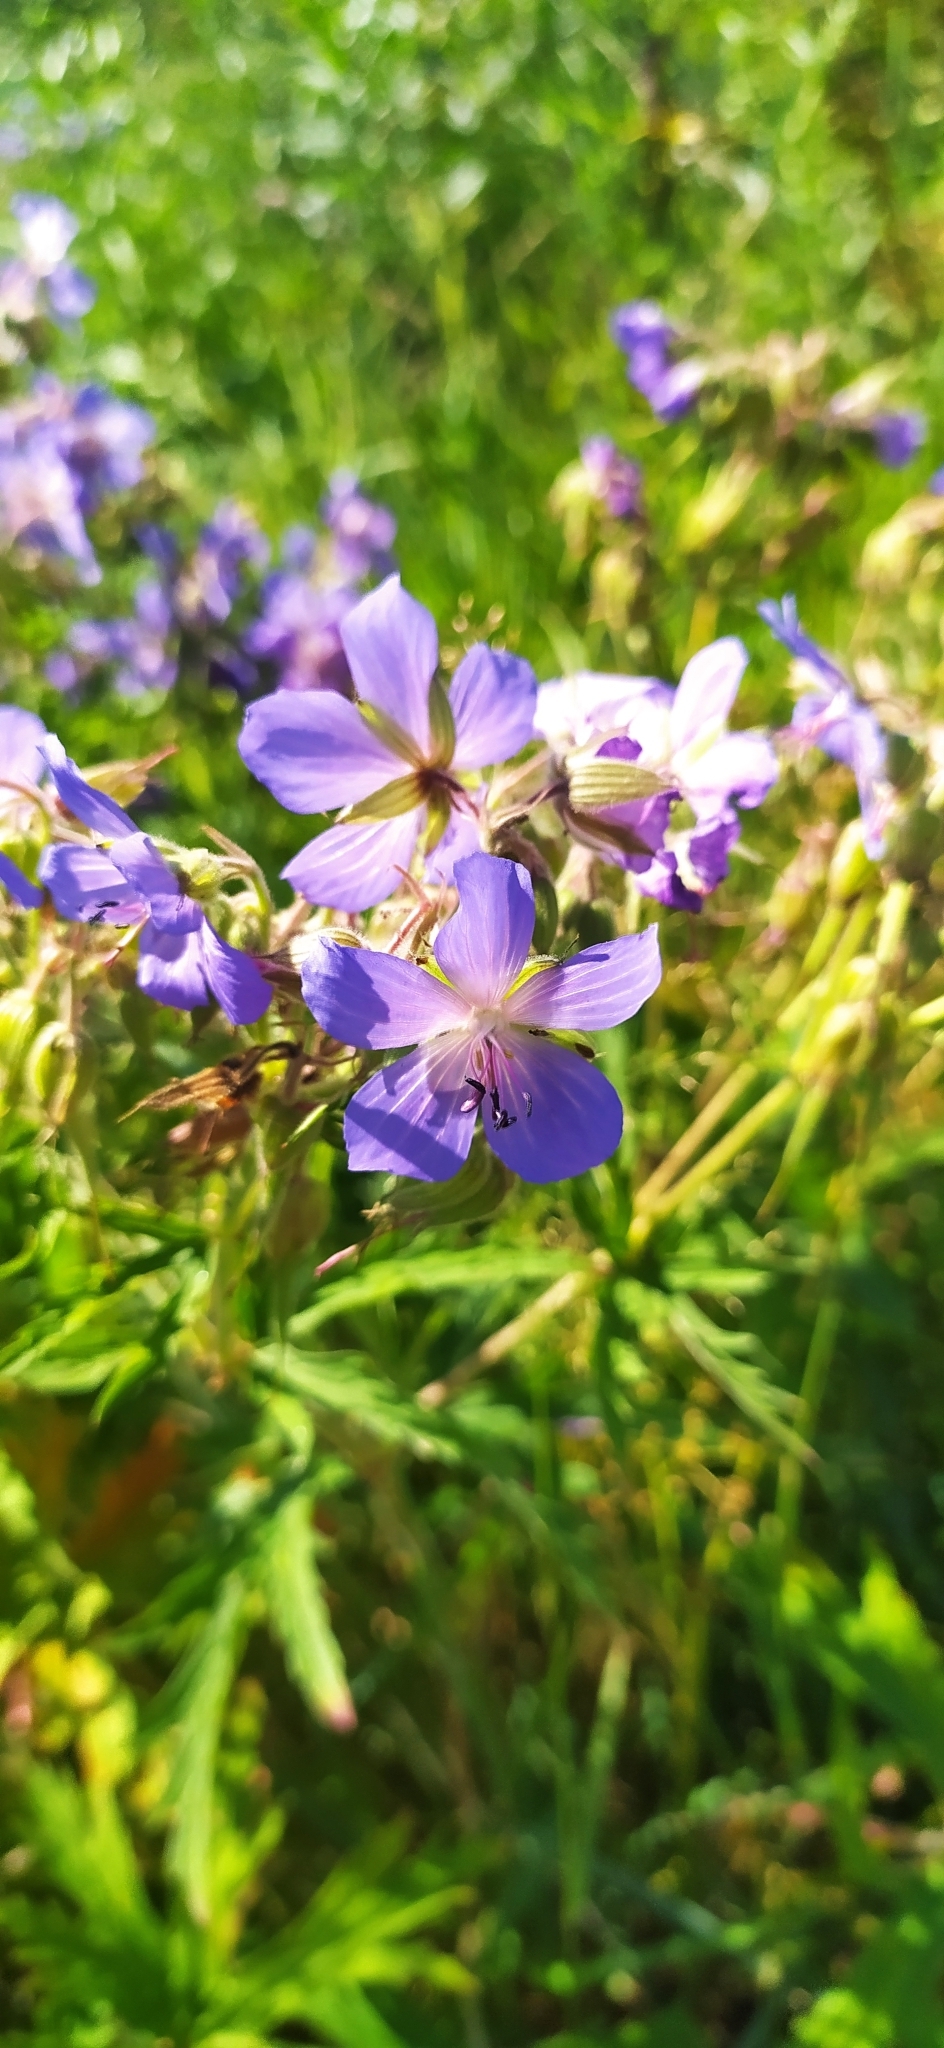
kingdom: Plantae
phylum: Tracheophyta
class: Magnoliopsida
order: Geraniales
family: Geraniaceae
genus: Geranium
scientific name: Geranium pratense
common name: Meadow crane's-bill
